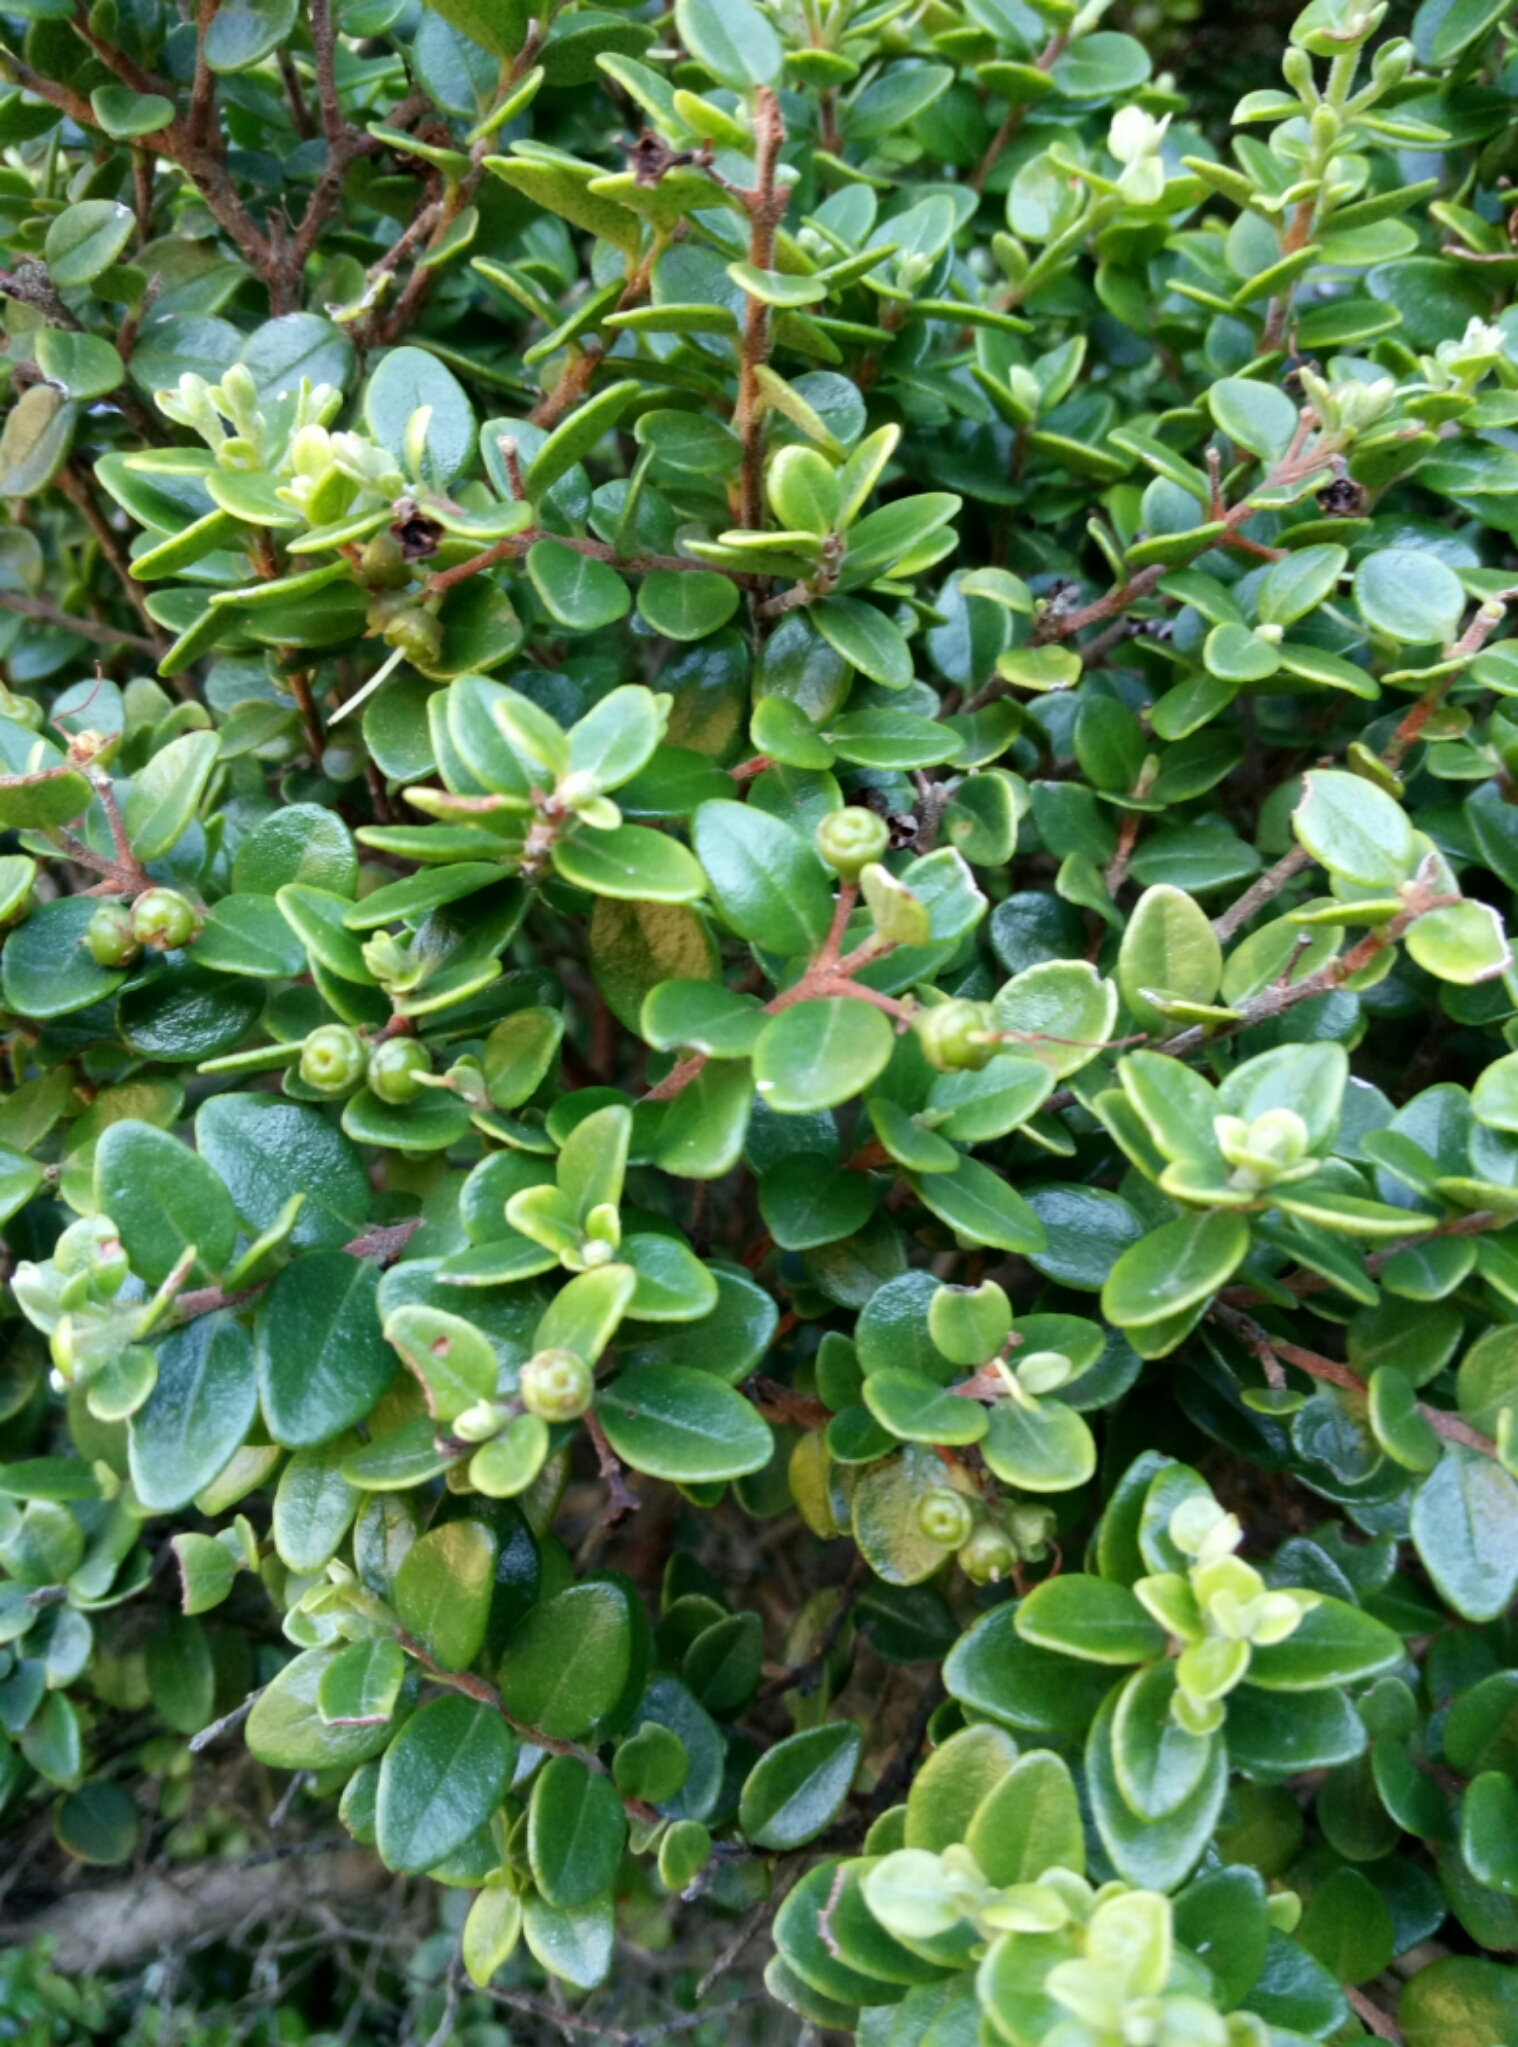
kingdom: Plantae
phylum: Tracheophyta
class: Magnoliopsida
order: Myrtales
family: Myrtaceae
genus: Metrosideros
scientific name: Metrosideros perforata
